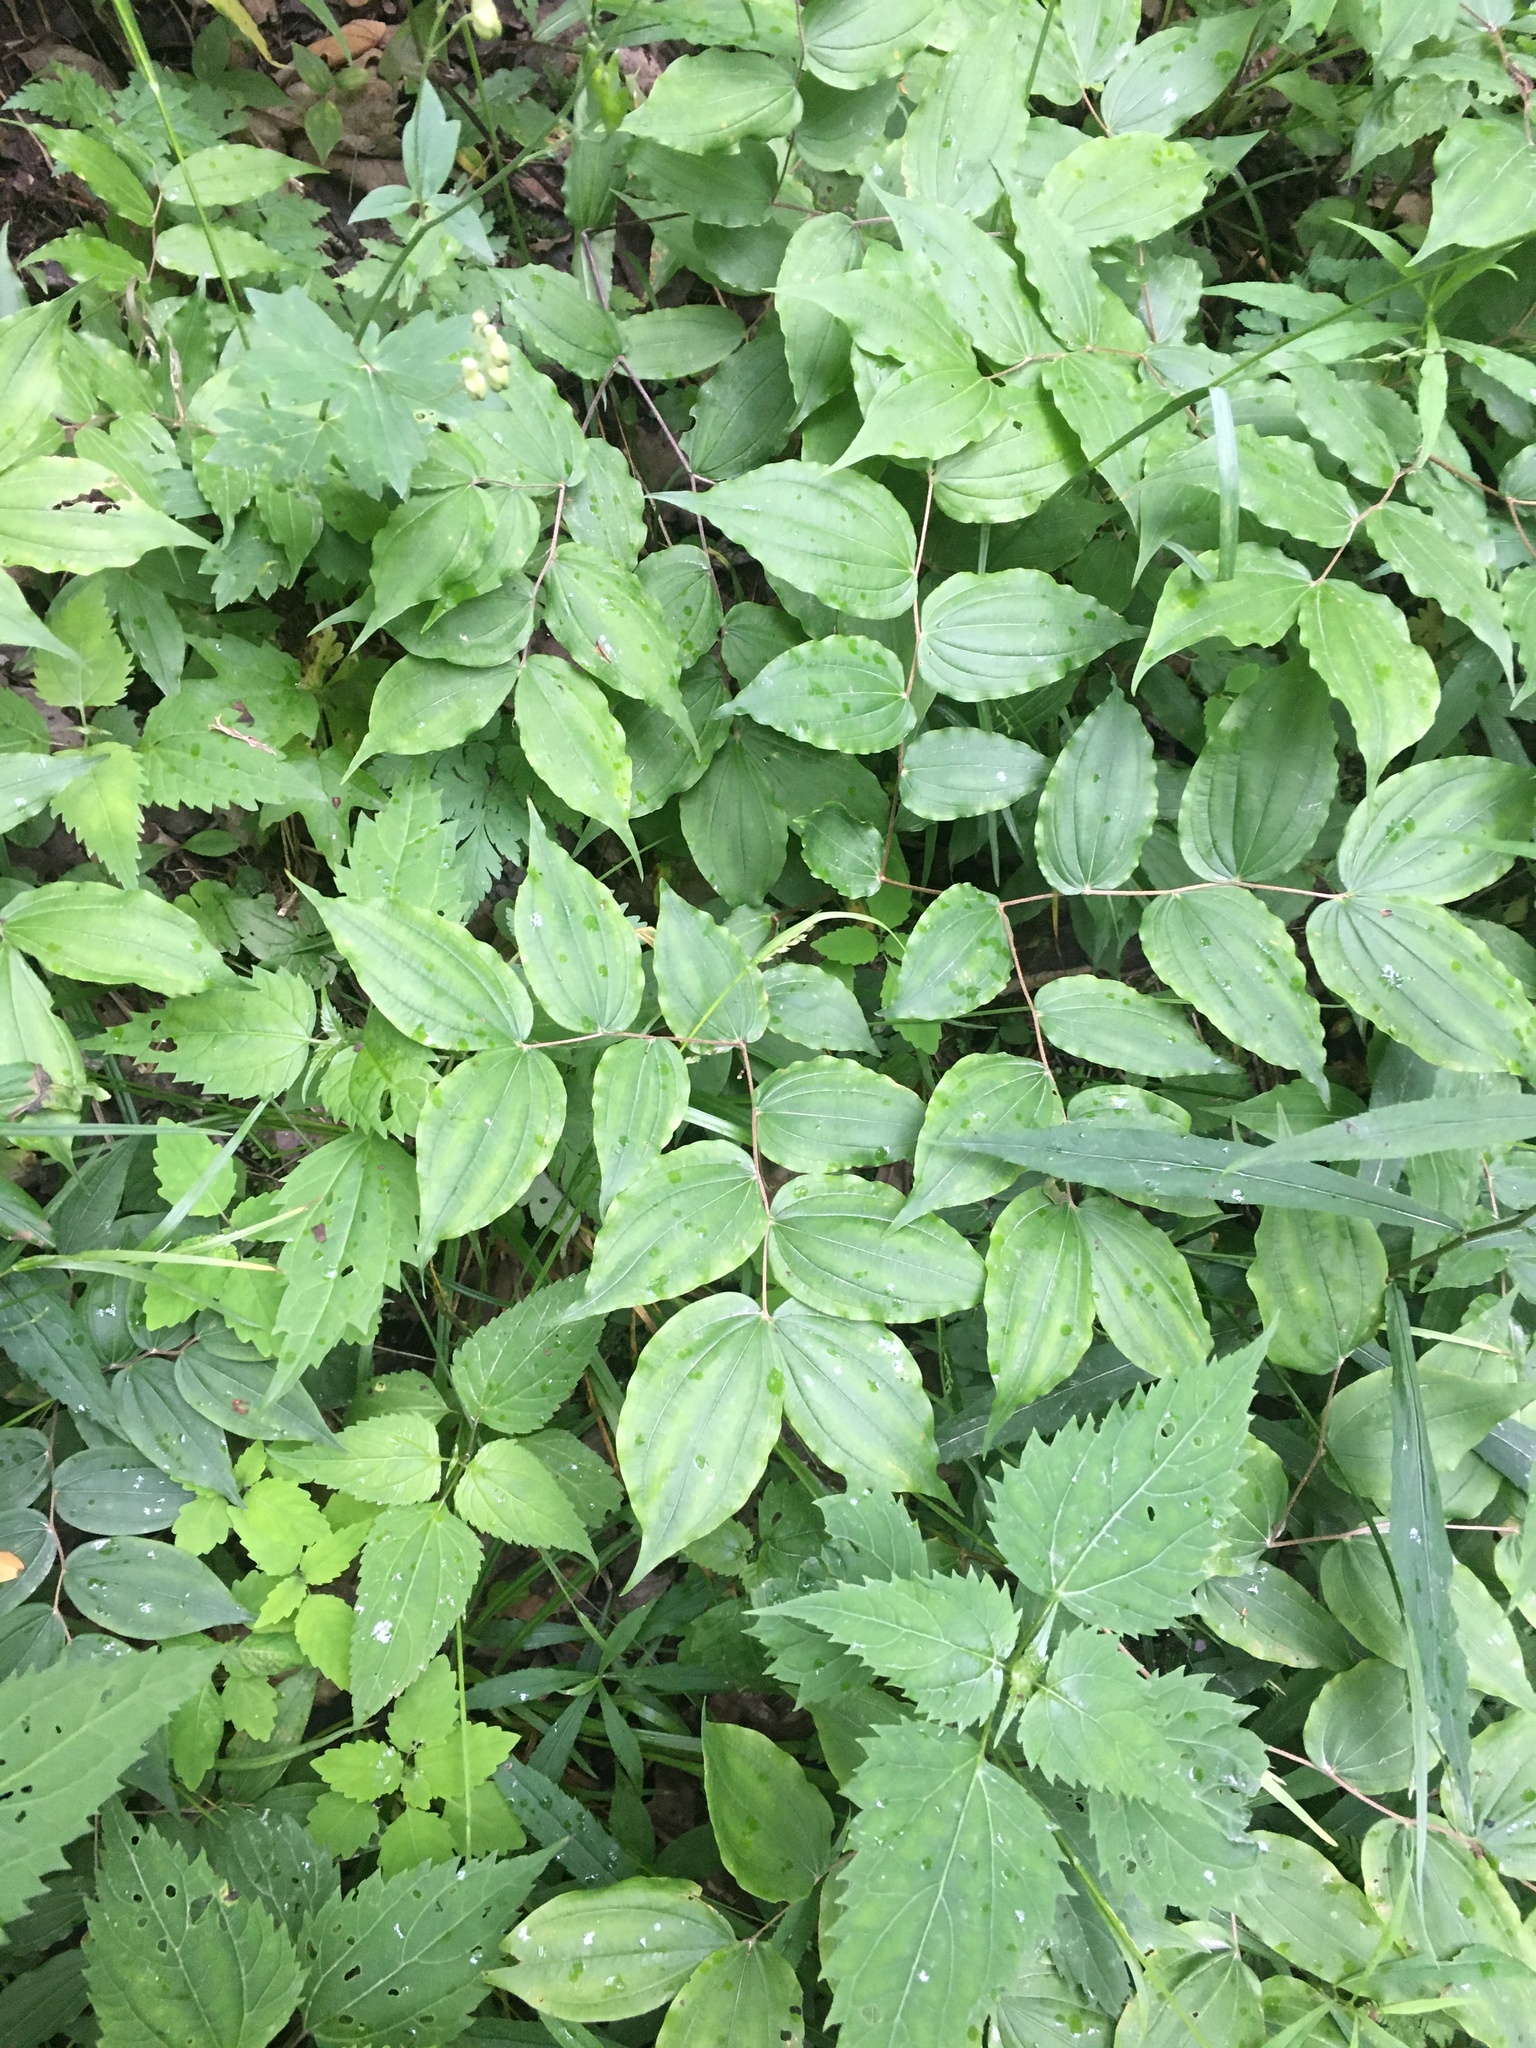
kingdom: Plantae
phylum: Tracheophyta
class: Liliopsida
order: Liliales
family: Liliaceae
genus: Prosartes
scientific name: Prosartes lanuginosa
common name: Hairy mandarin
